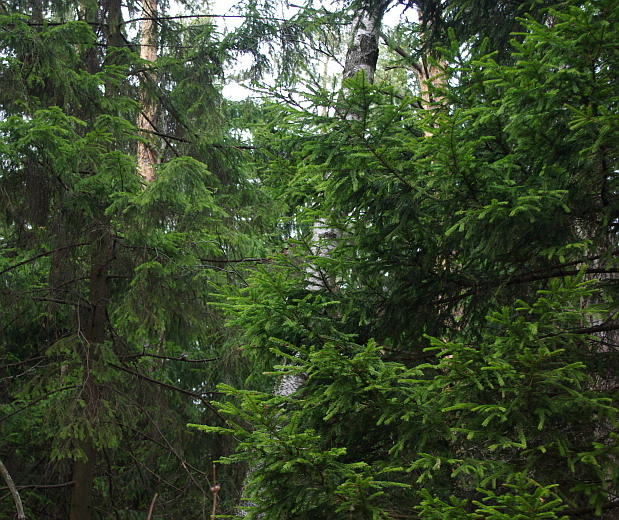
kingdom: Plantae
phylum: Tracheophyta
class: Pinopsida
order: Pinales
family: Pinaceae
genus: Picea
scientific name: Picea abies
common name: Norway spruce
